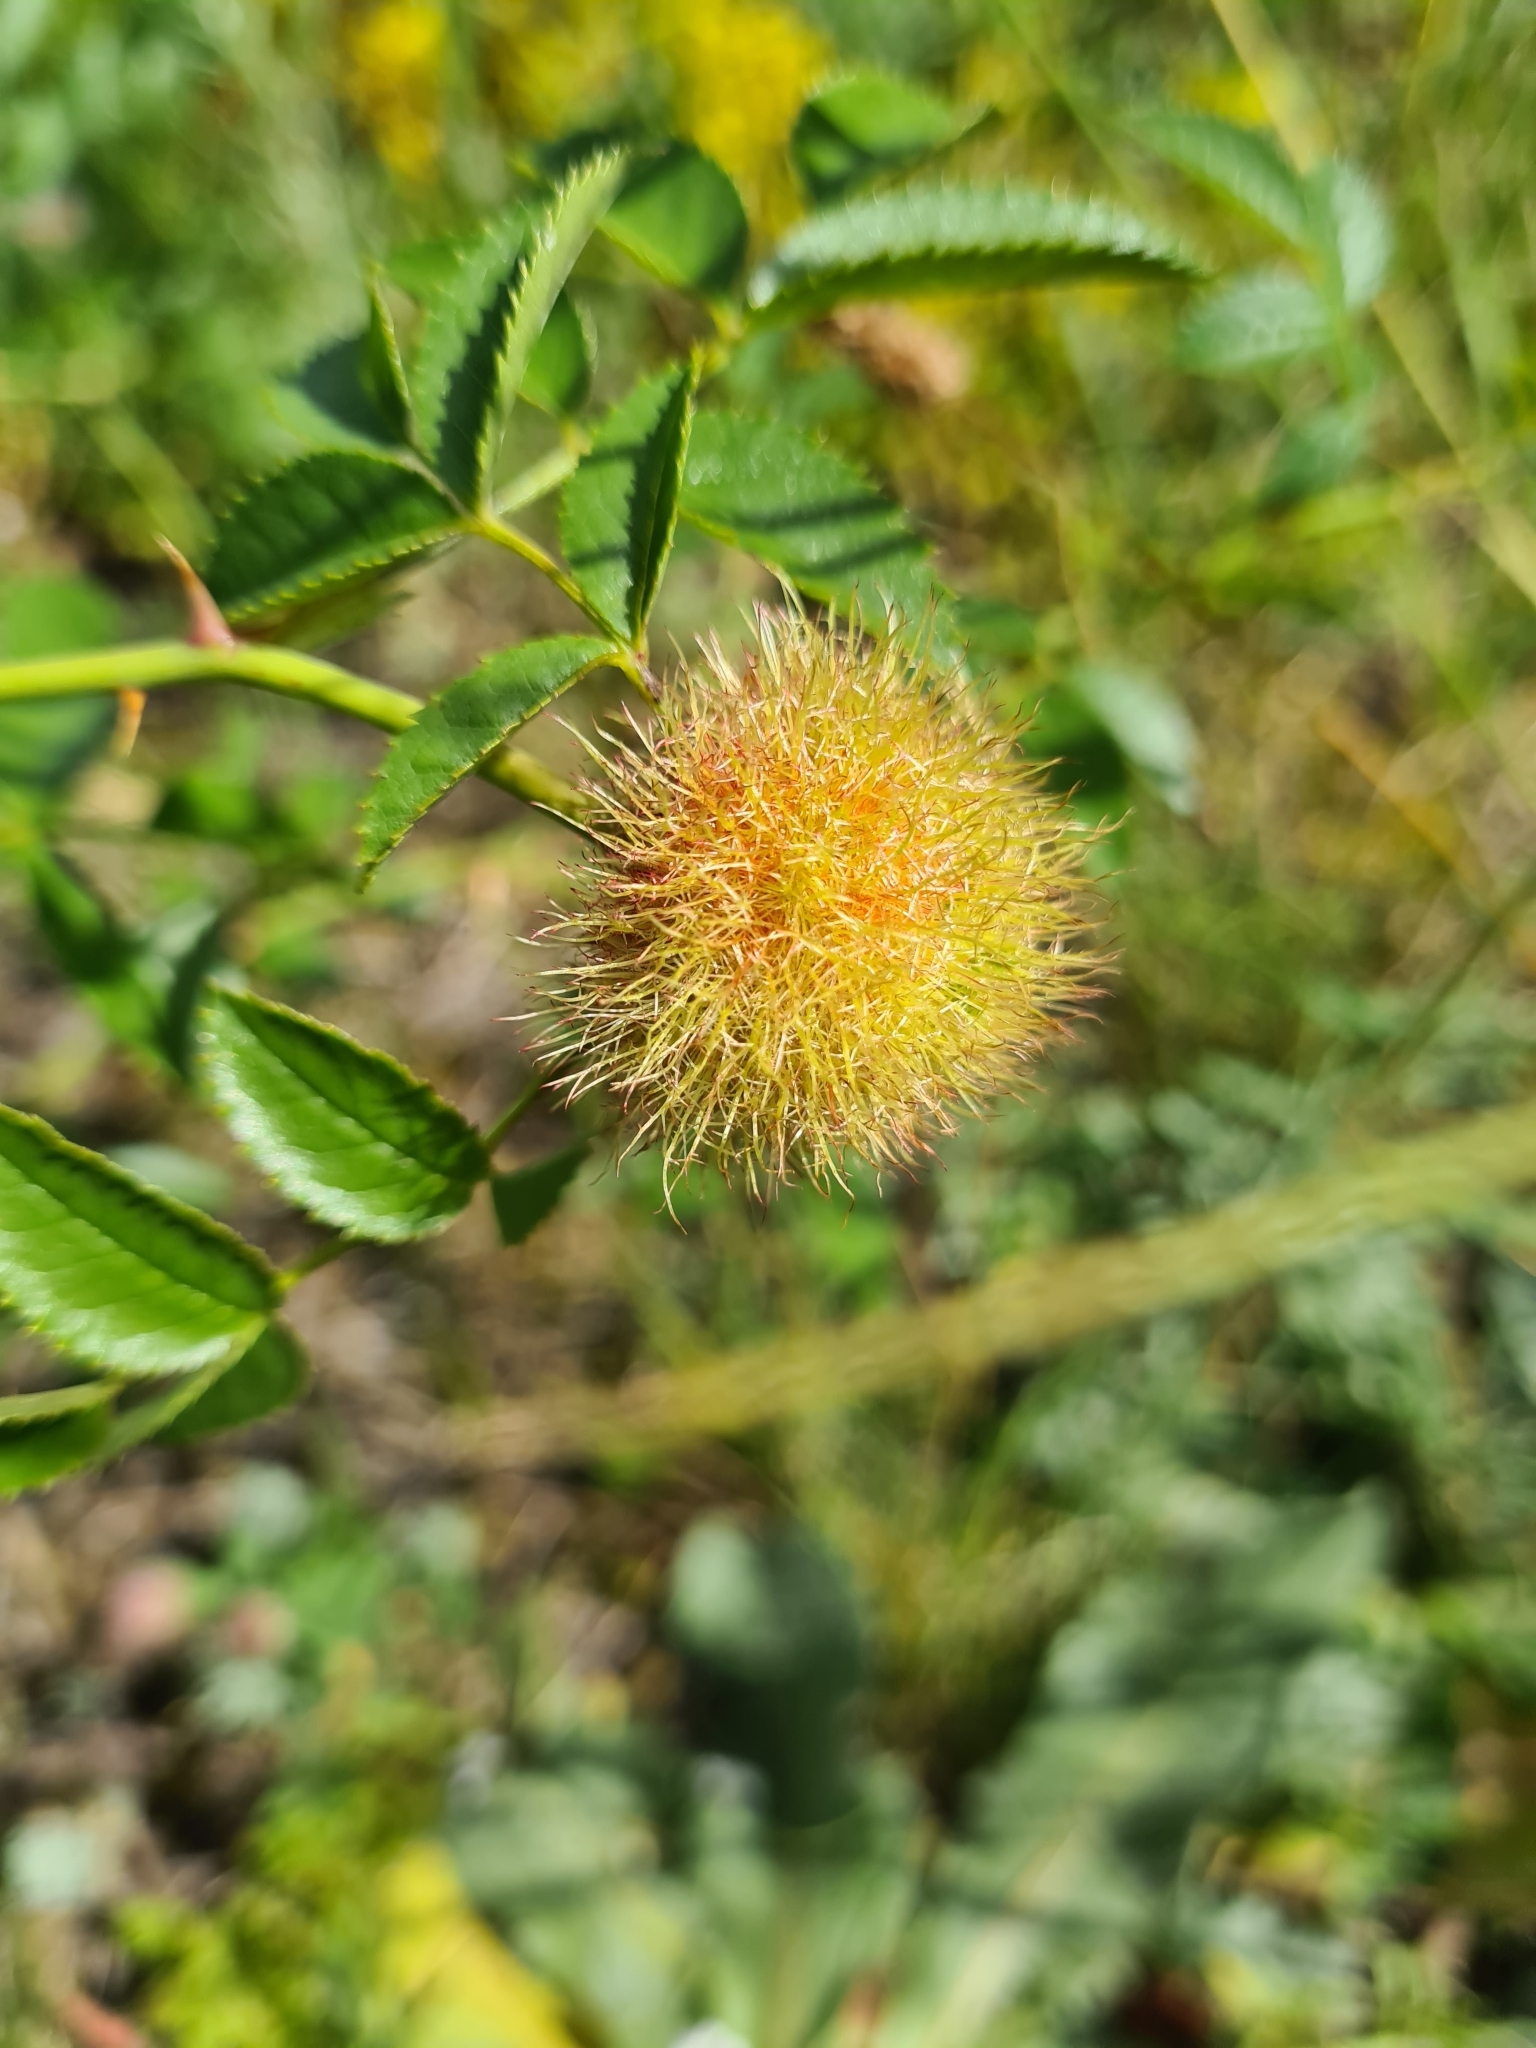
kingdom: Animalia
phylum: Arthropoda
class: Insecta
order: Hymenoptera
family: Cynipidae
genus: Diplolepis
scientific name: Diplolepis rosae
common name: Bedeguar gall
